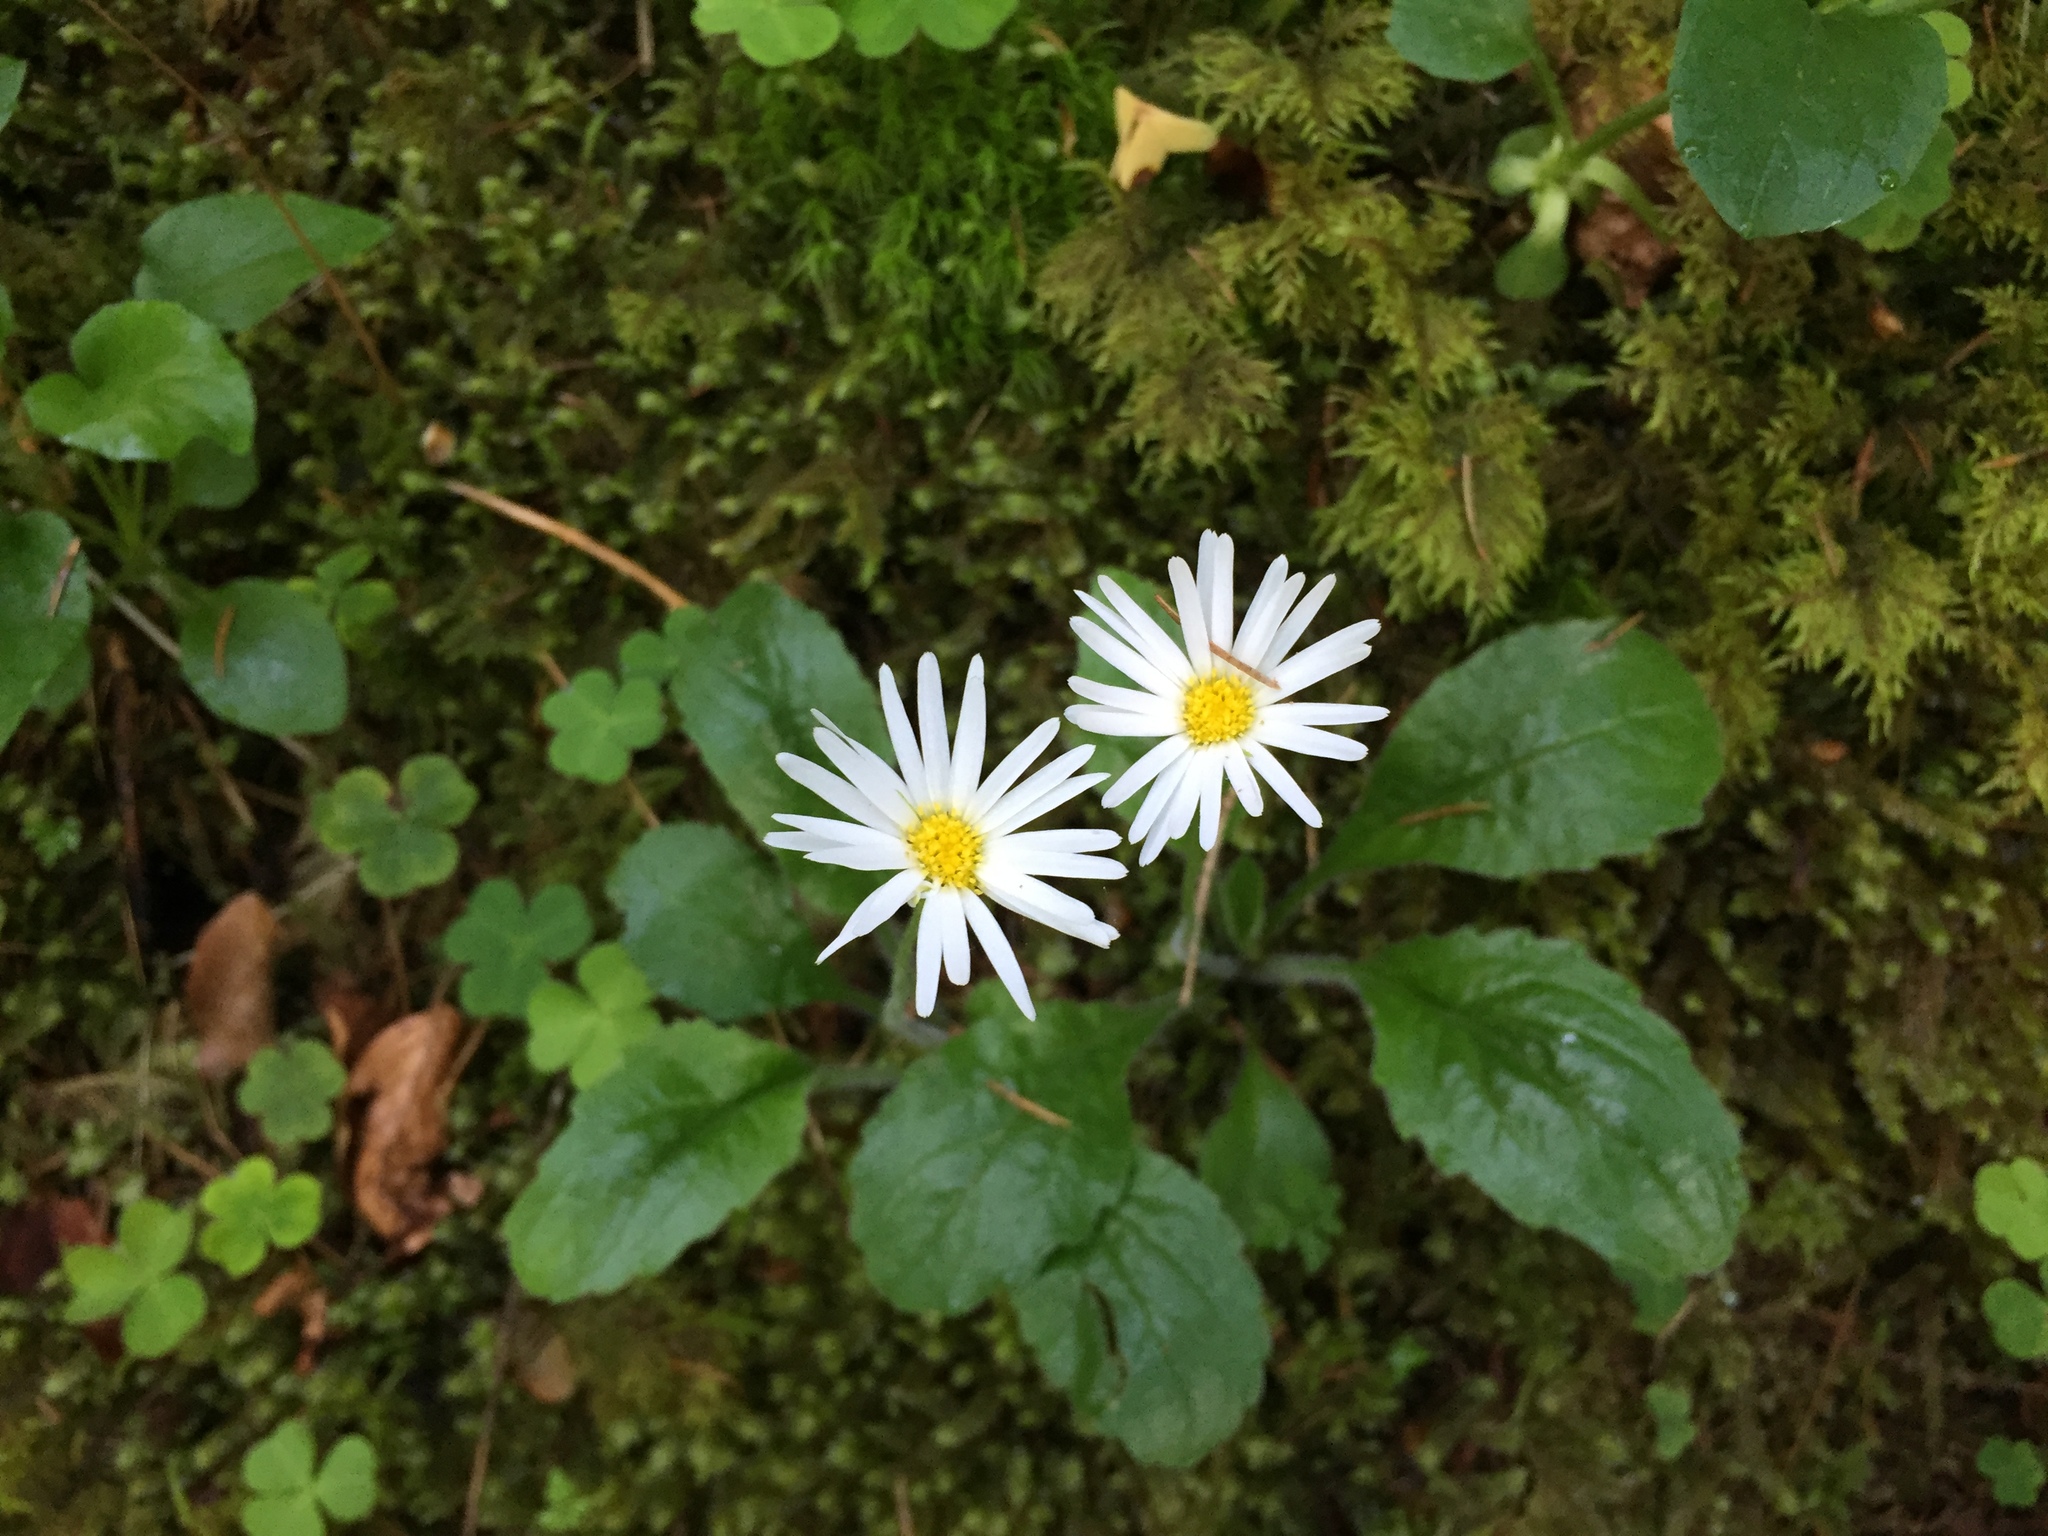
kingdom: Plantae
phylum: Tracheophyta
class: Magnoliopsida
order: Asterales
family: Asteraceae
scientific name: Asteraceae
